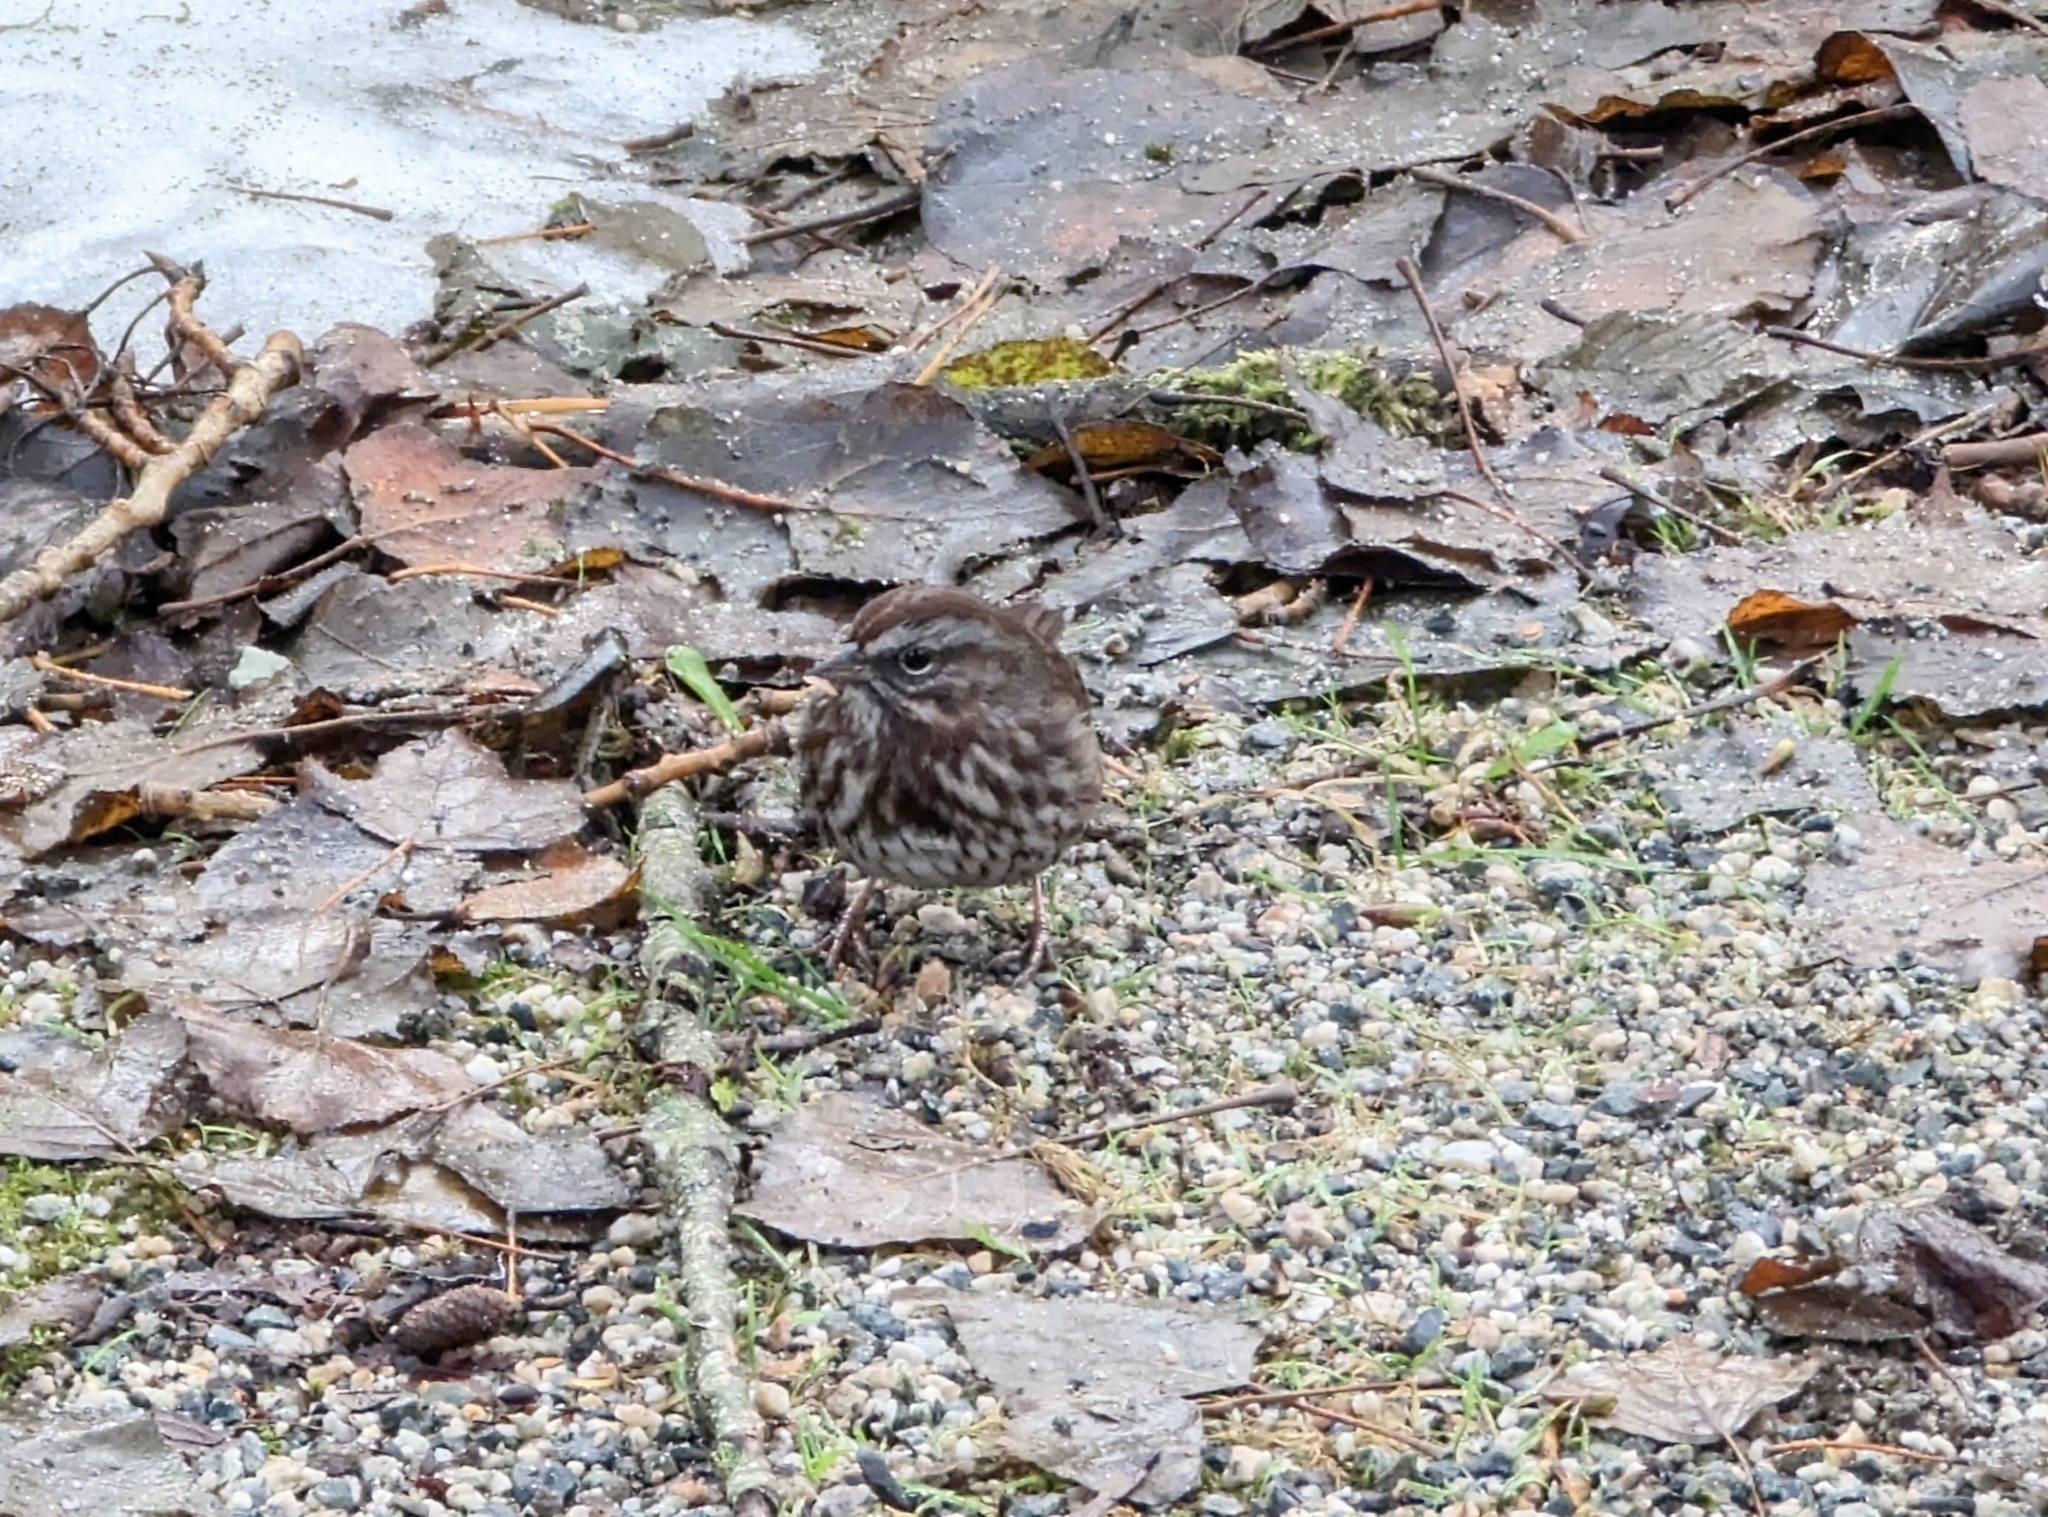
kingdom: Animalia
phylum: Chordata
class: Aves
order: Passeriformes
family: Passerellidae
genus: Melospiza
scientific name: Melospiza melodia
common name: Song sparrow
